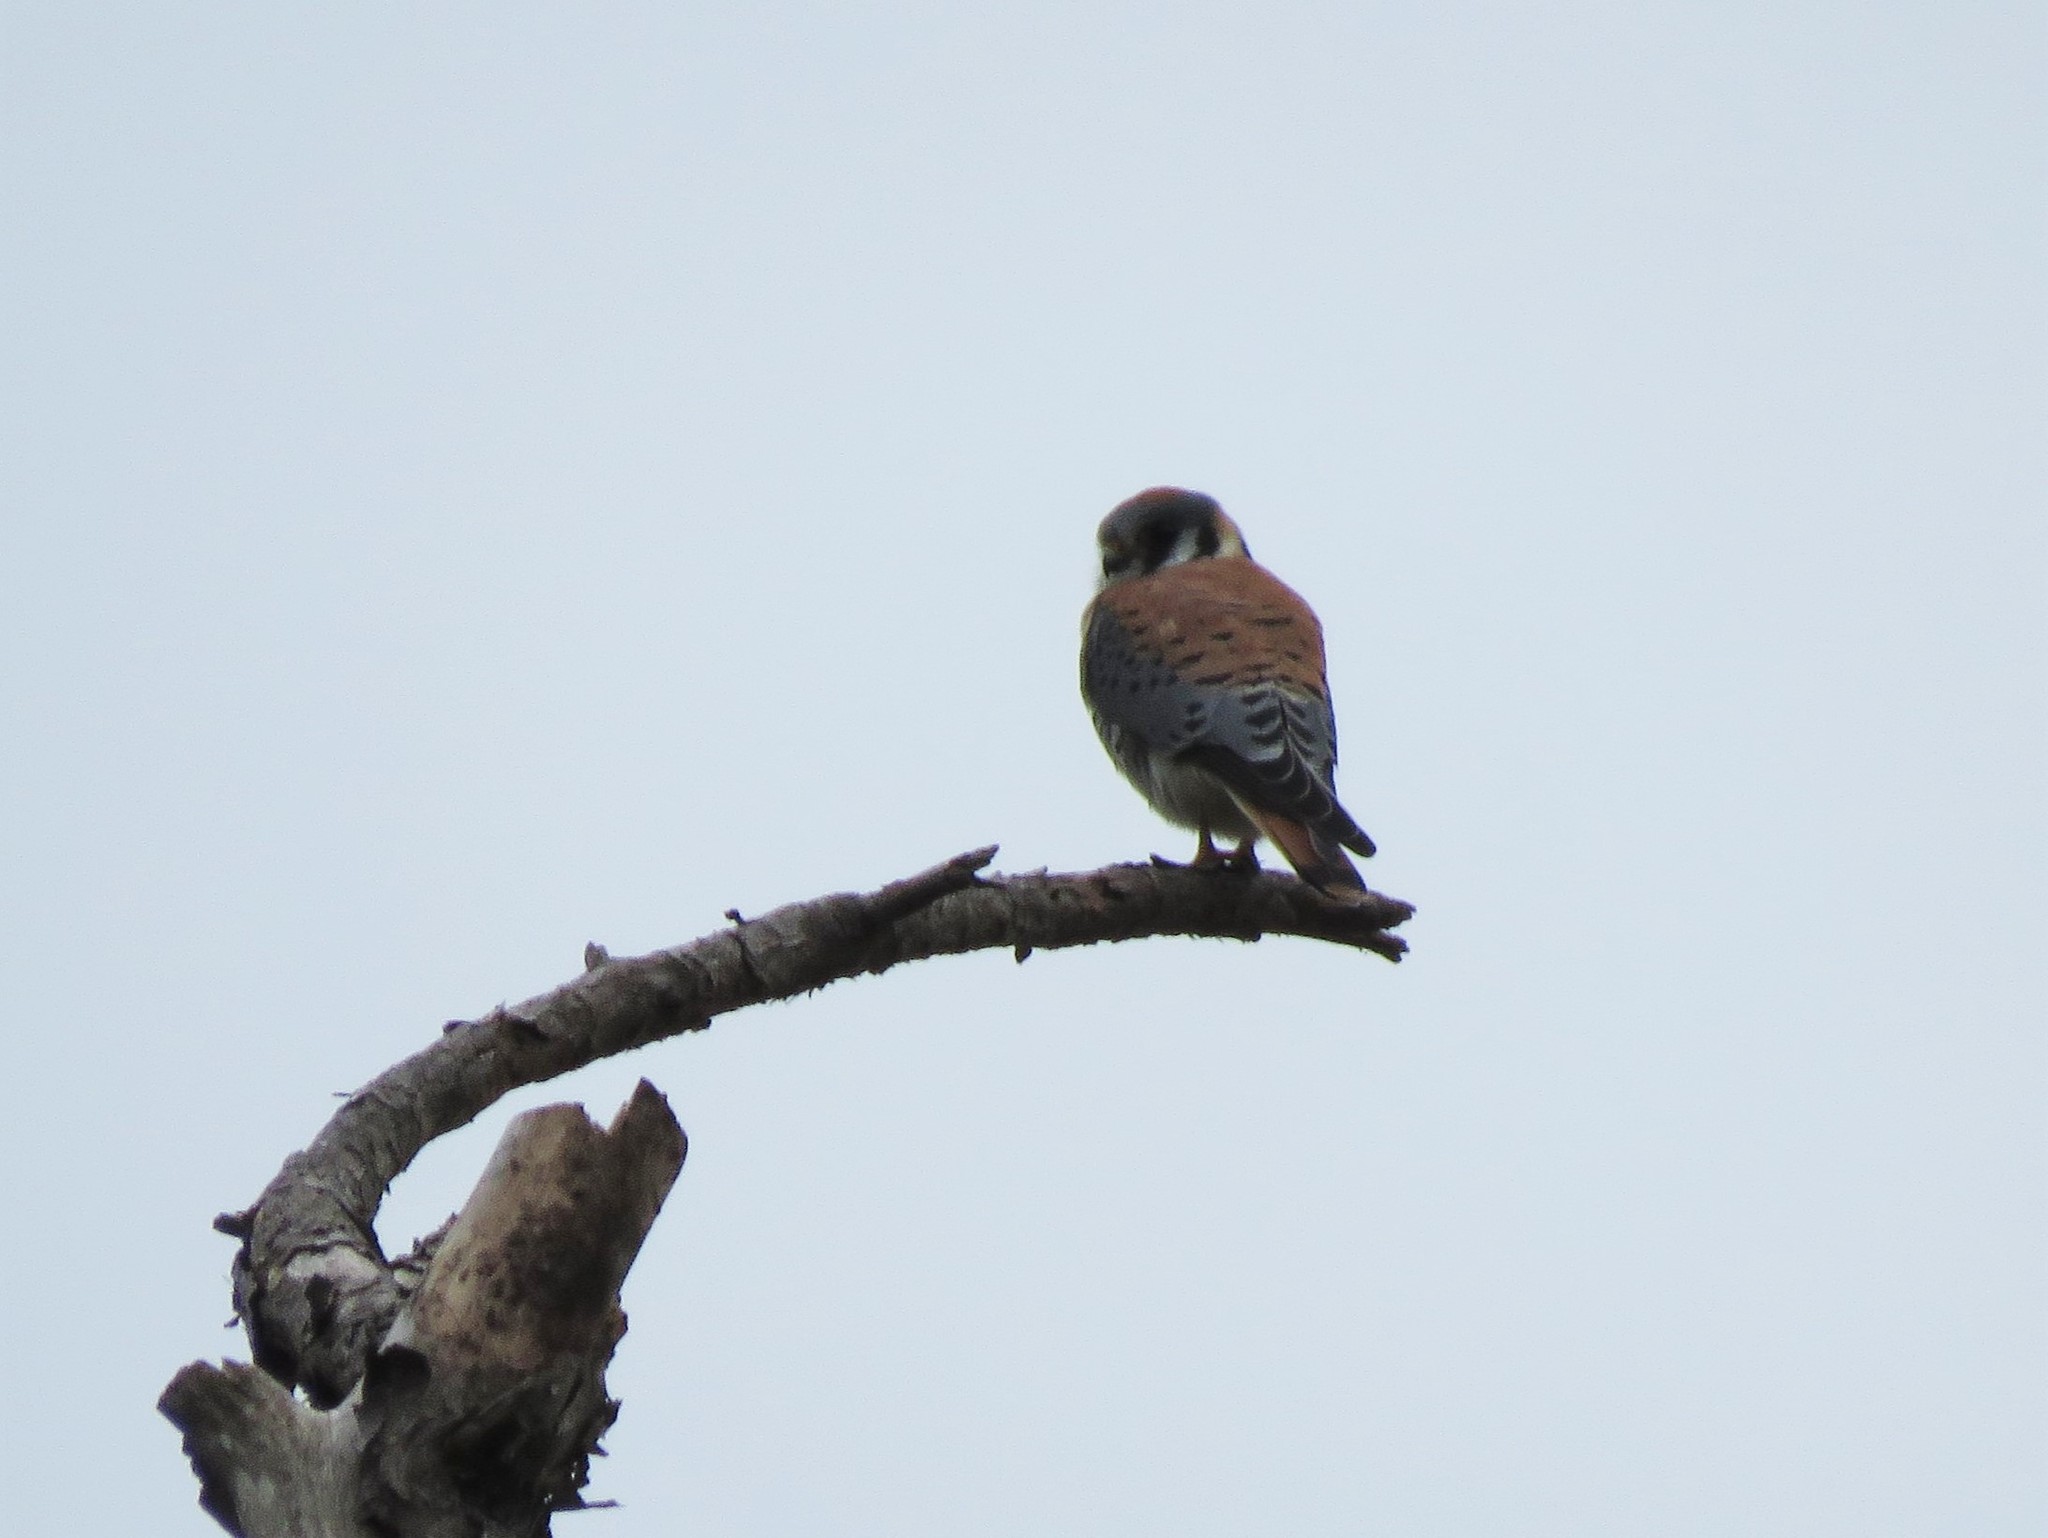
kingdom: Animalia
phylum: Chordata
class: Aves
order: Falconiformes
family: Falconidae
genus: Falco
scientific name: Falco sparverius
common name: American kestrel
